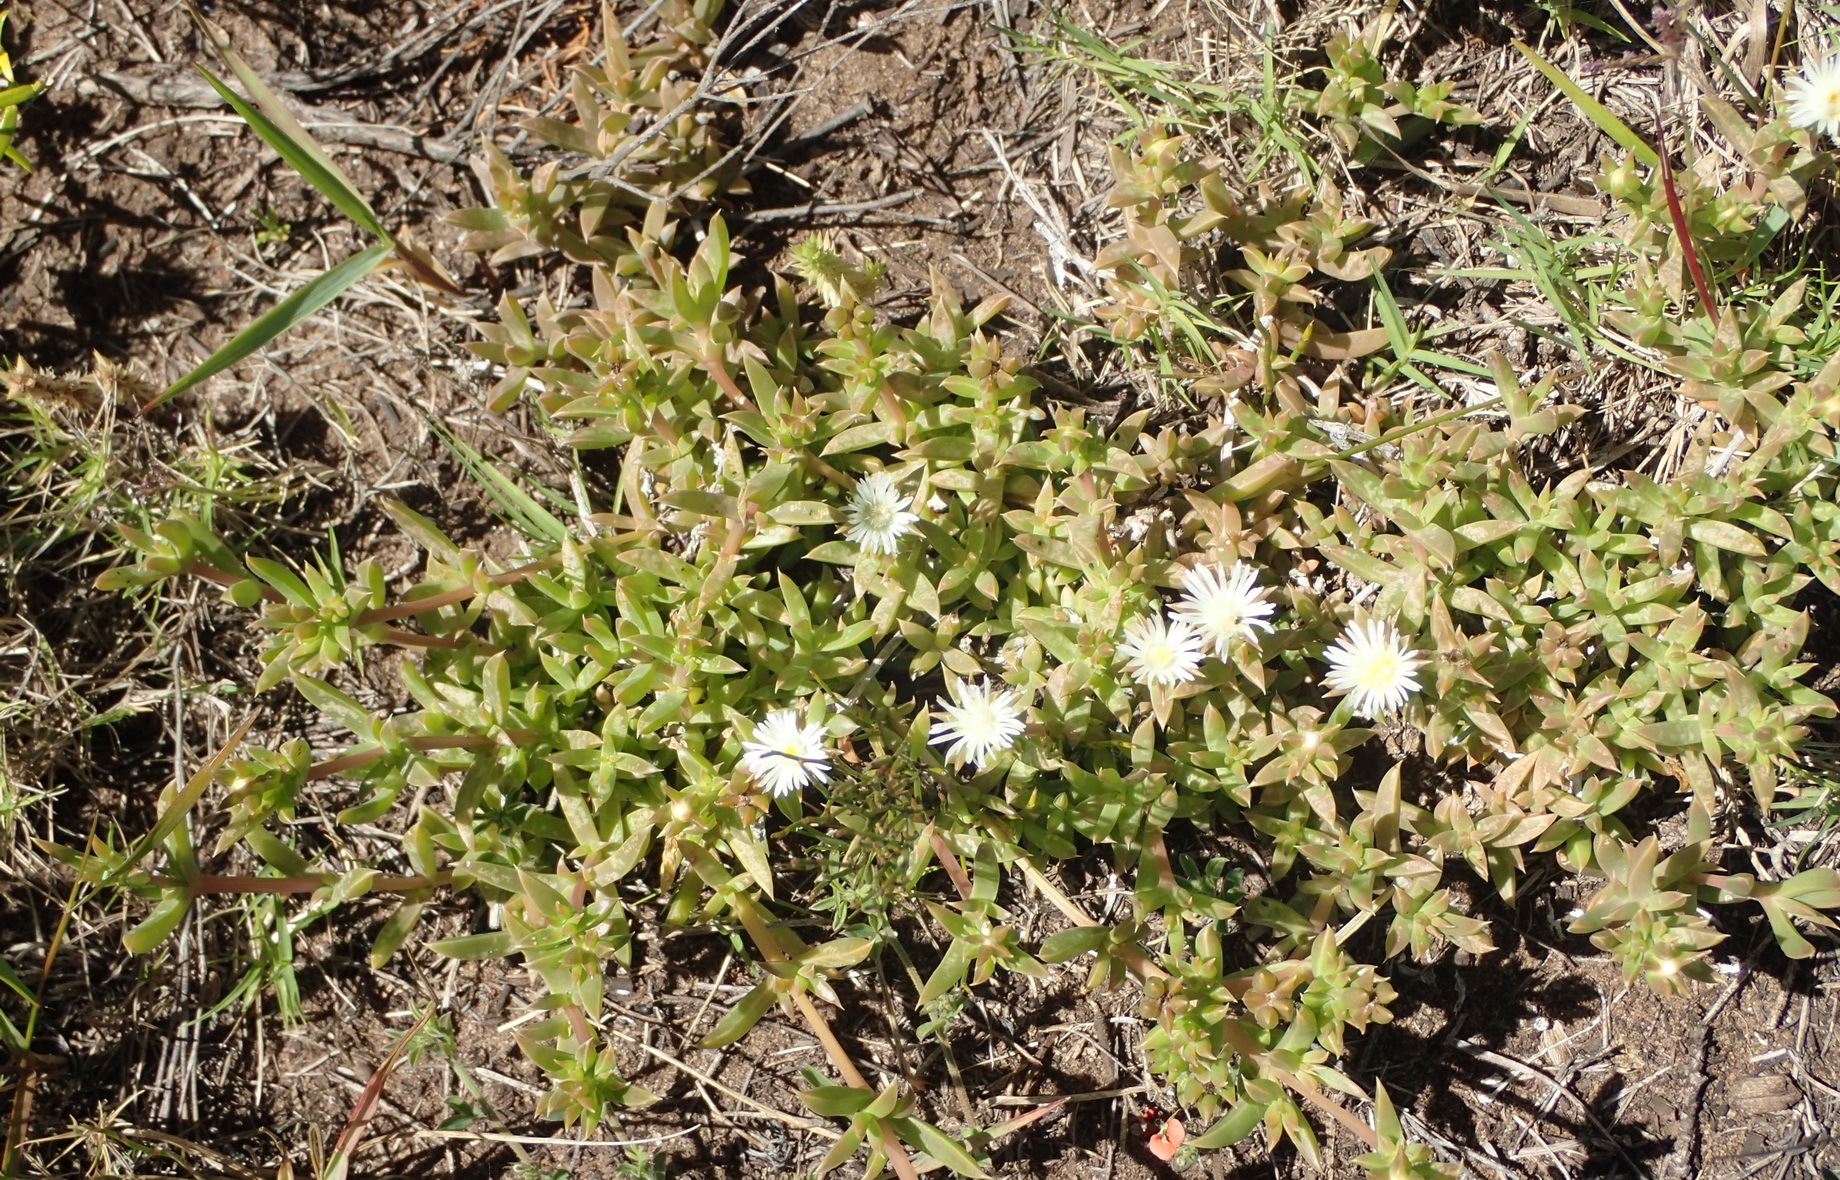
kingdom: Plantae
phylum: Tracheophyta
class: Magnoliopsida
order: Caryophyllales
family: Aizoaceae
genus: Delosperma
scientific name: Delosperma inconspicuum
